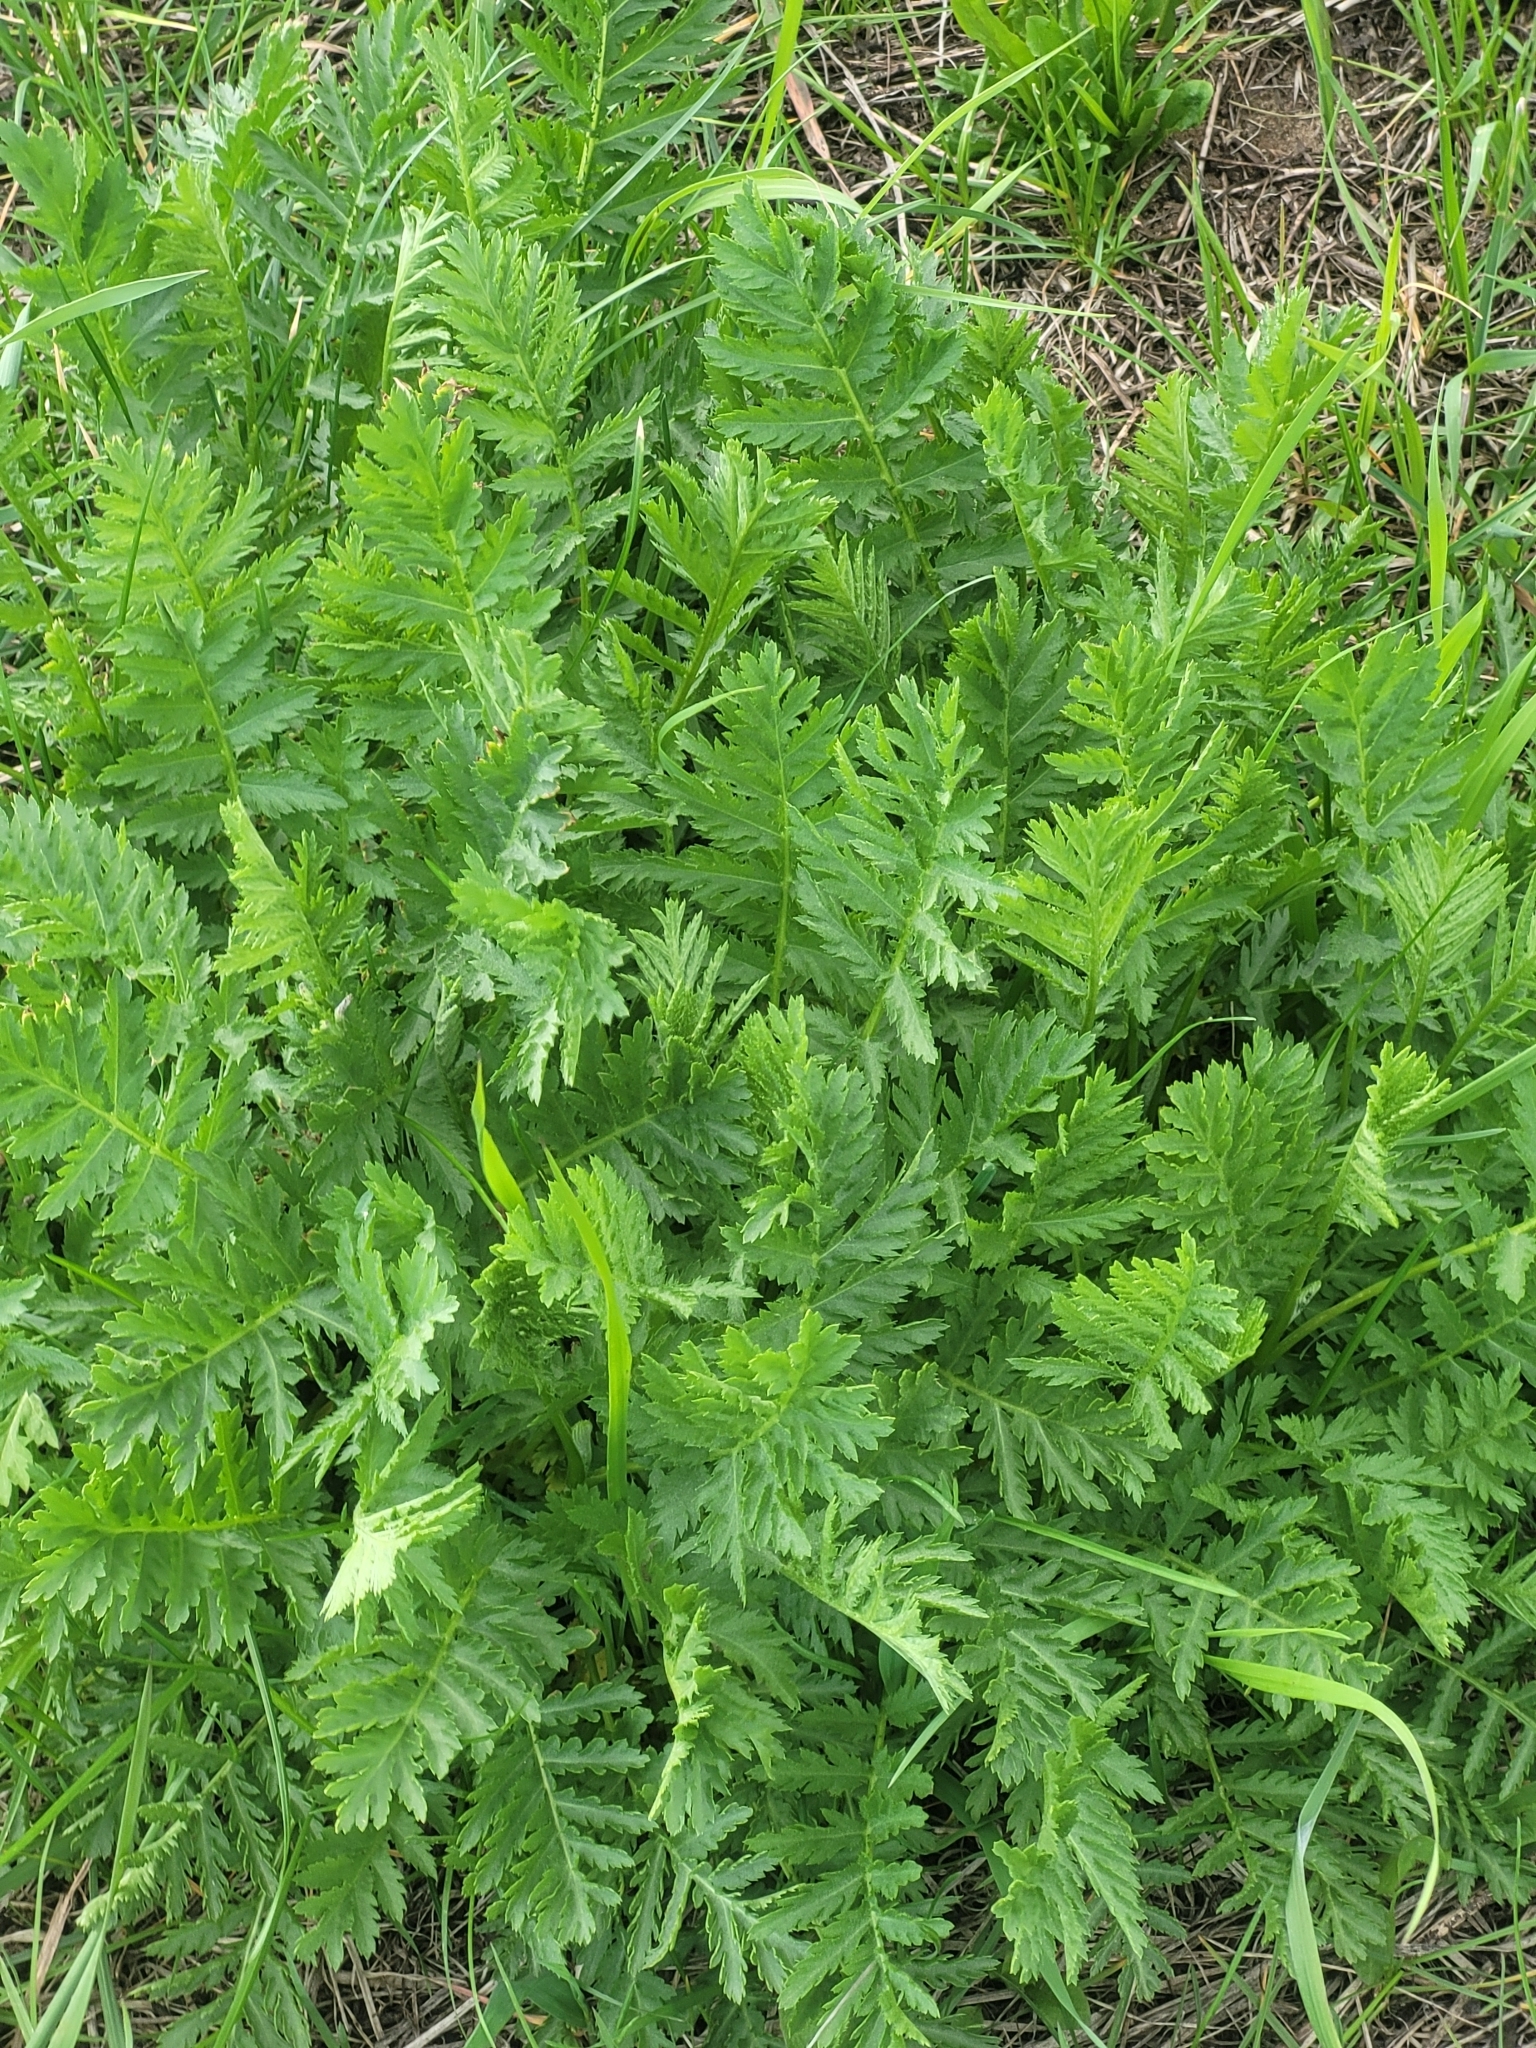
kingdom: Plantae
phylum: Tracheophyta
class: Magnoliopsida
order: Asterales
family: Asteraceae
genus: Tanacetum
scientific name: Tanacetum vulgare
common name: Common tansy
